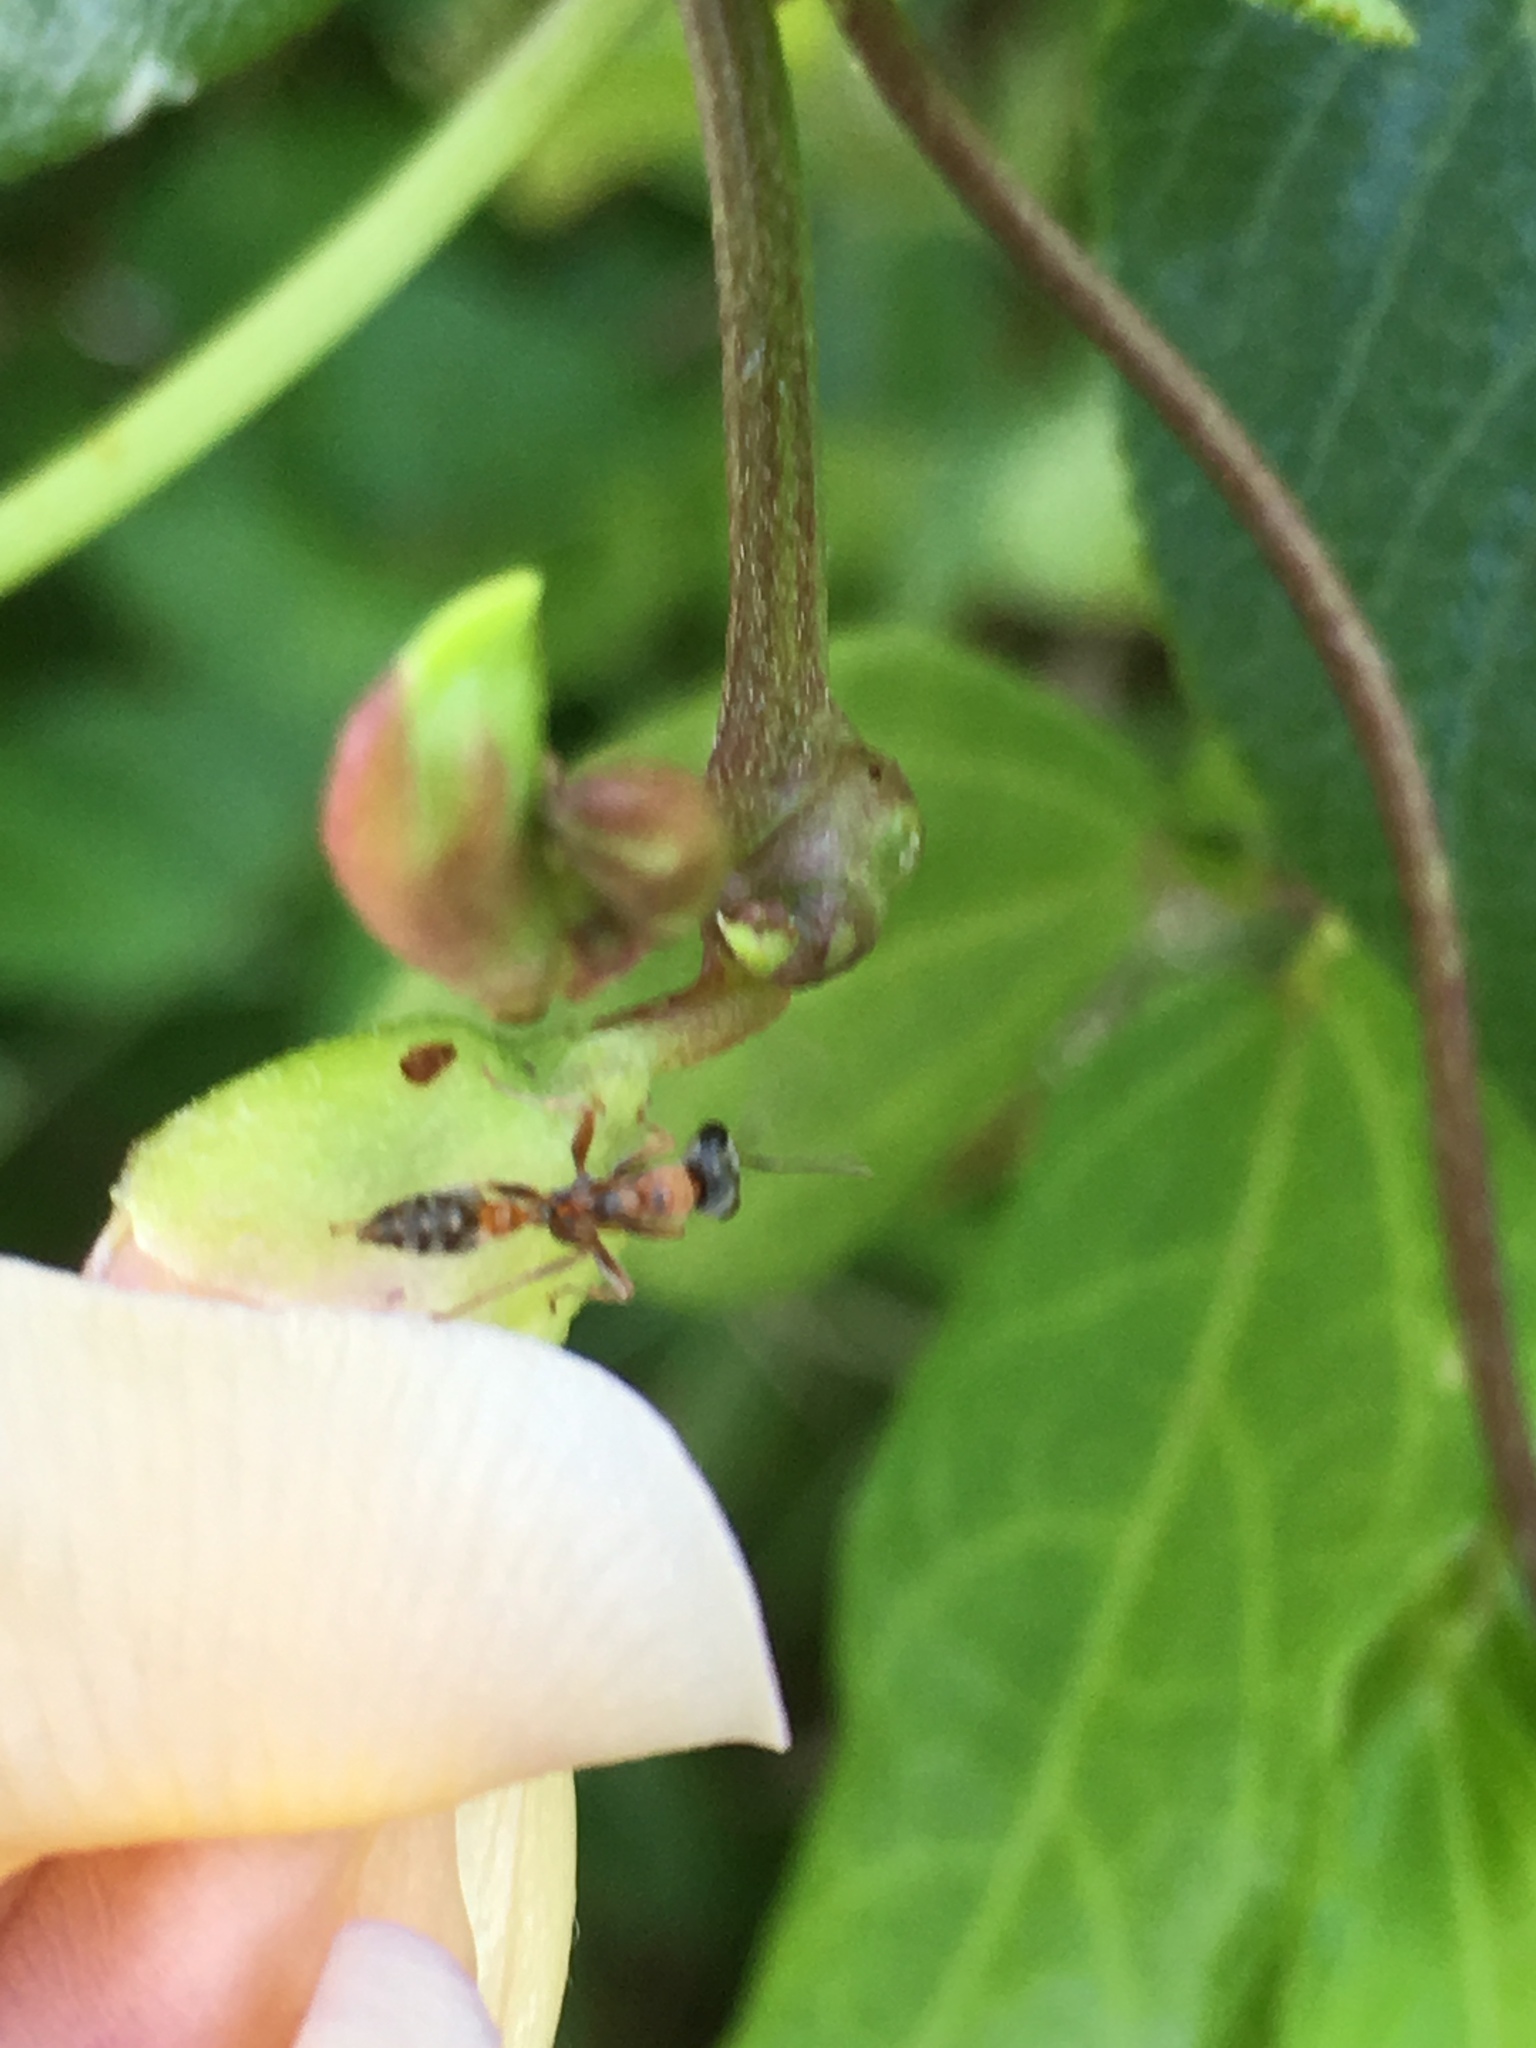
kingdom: Animalia
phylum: Arthropoda
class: Insecta
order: Hymenoptera
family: Formicidae
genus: Pseudomyrmex
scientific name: Pseudomyrmex gracilis
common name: Graceful twig ant
